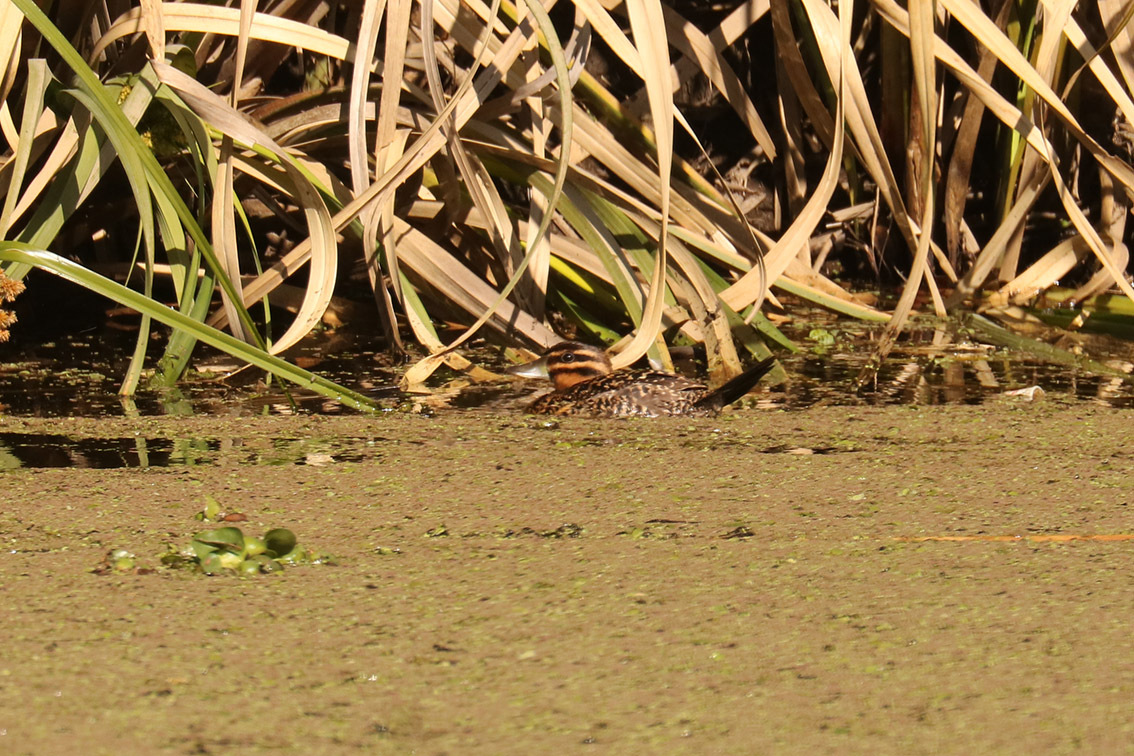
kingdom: Animalia
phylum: Chordata
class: Aves
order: Anseriformes
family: Anatidae
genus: Nomonyx
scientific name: Nomonyx dominicus
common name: Masked duck
